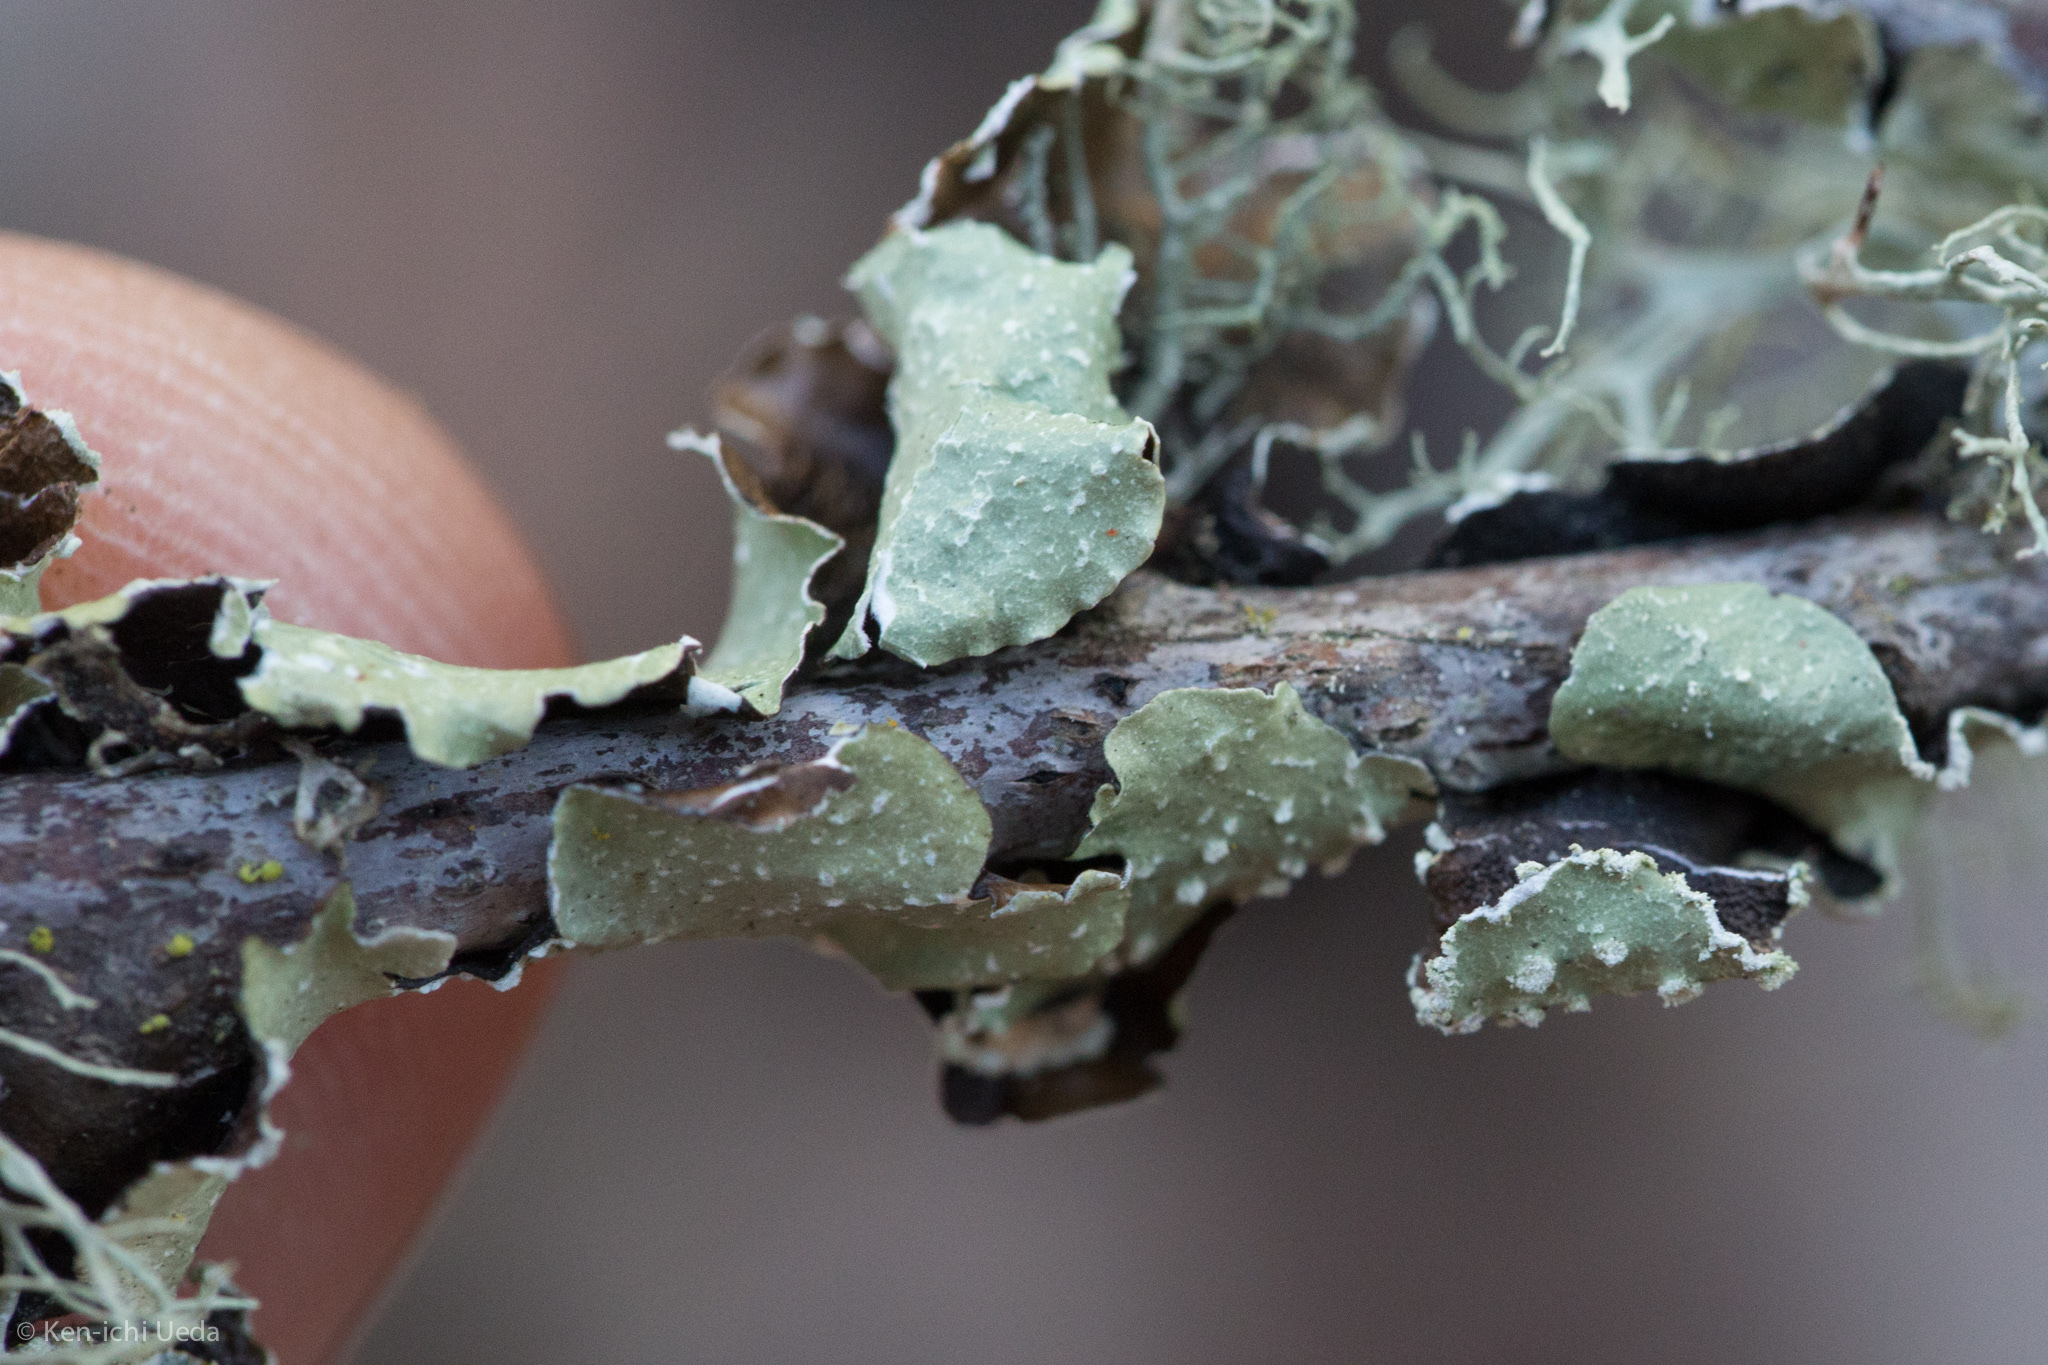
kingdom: Fungi
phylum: Ascomycota
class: Lecanoromycetes
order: Lecanorales
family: Parmeliaceae
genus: Flavopunctelia
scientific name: Flavopunctelia flaventior
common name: Speckled greenshield
